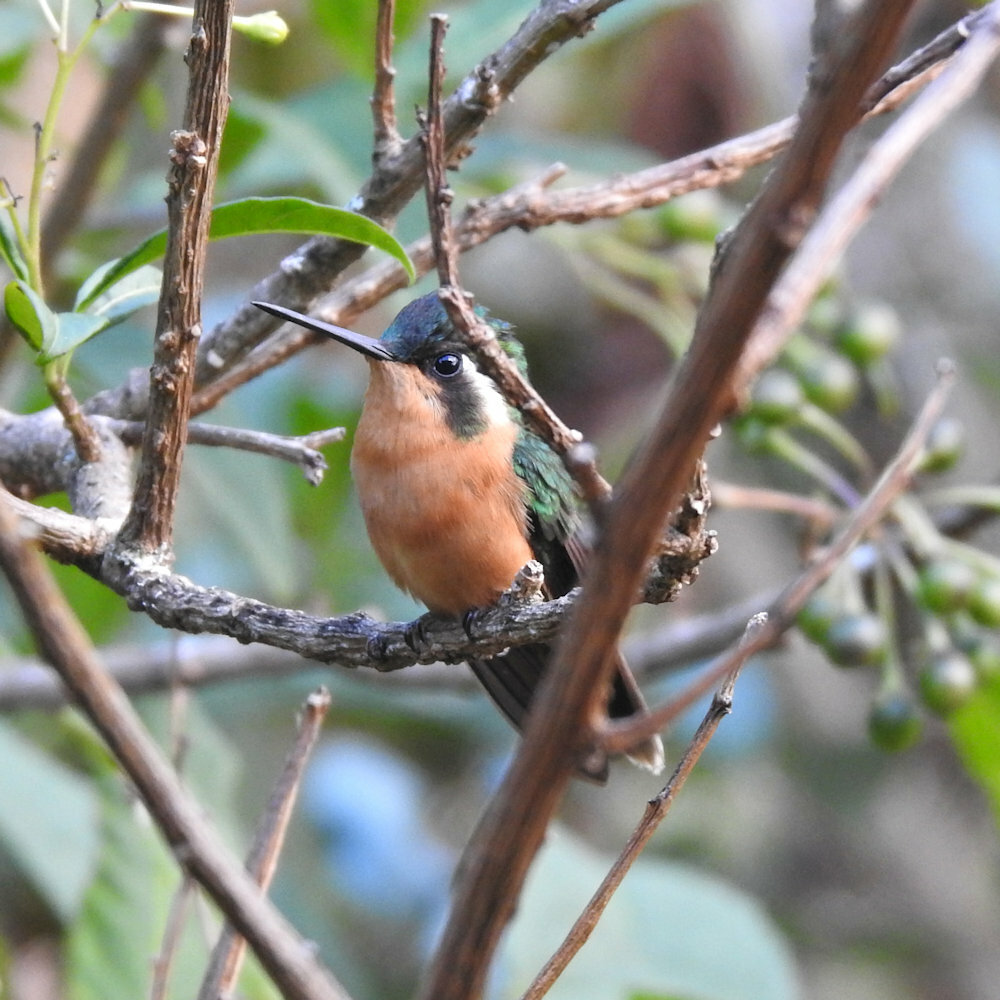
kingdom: Animalia
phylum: Chordata
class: Aves
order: Apodiformes
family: Trochilidae
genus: Lampornis
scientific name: Lampornis castaneoventris
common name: White-throated mountain-gem
